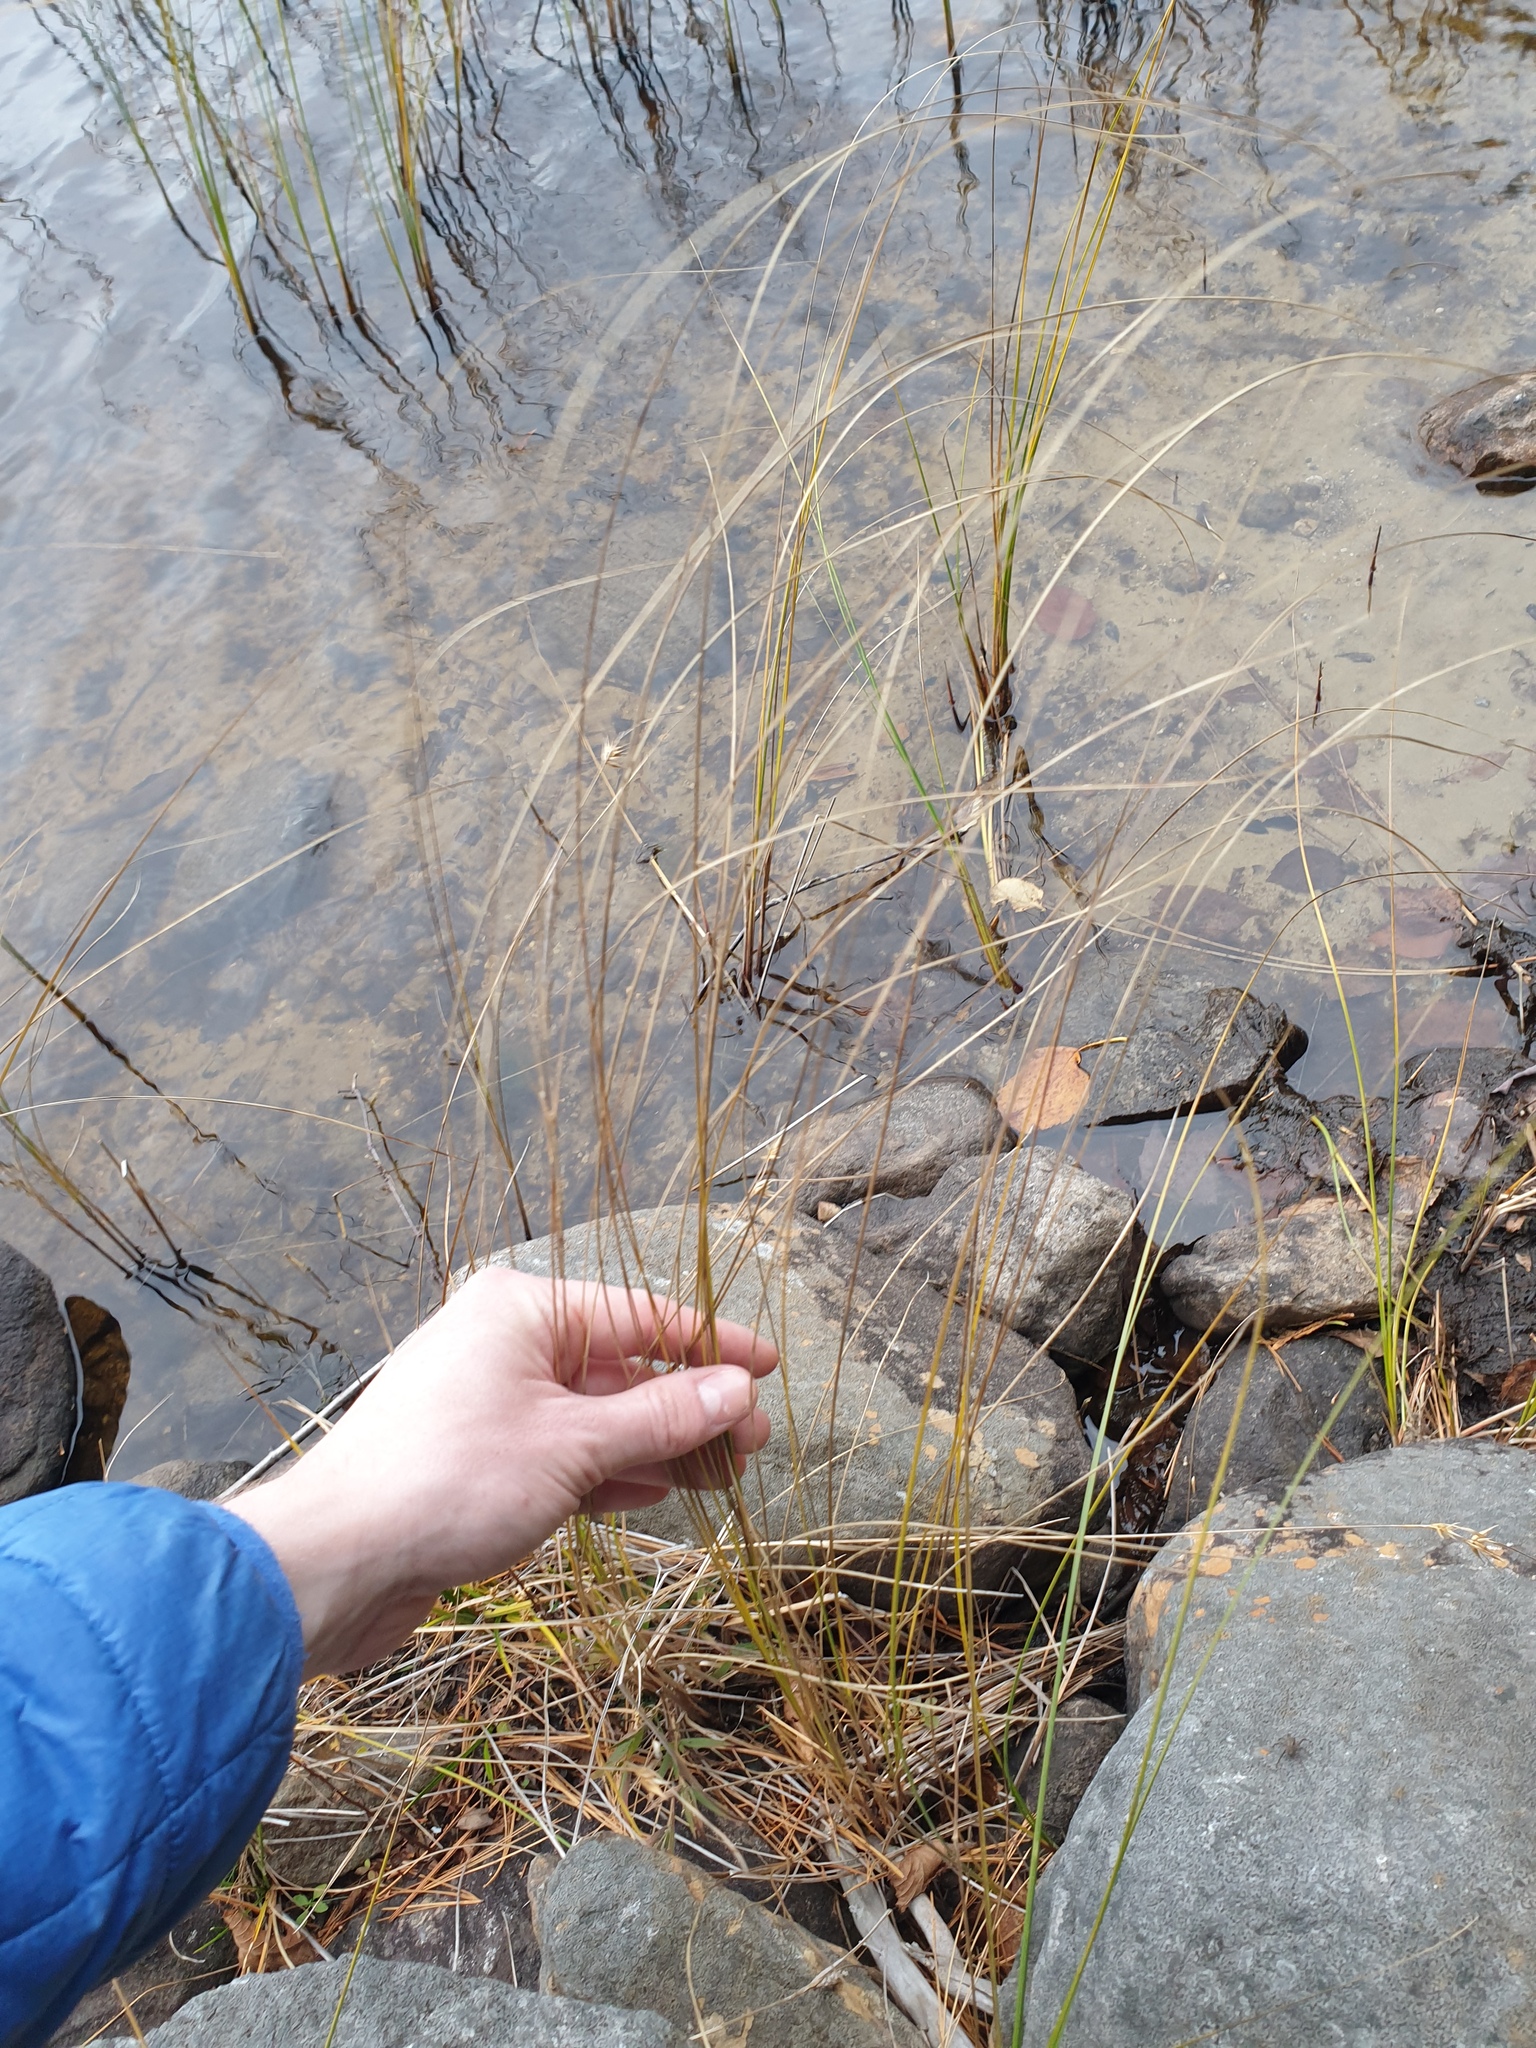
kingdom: Plantae
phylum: Tracheophyta
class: Liliopsida
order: Poales
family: Cyperaceae
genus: Carex
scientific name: Carex lasiocarpa
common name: Slender sedge
